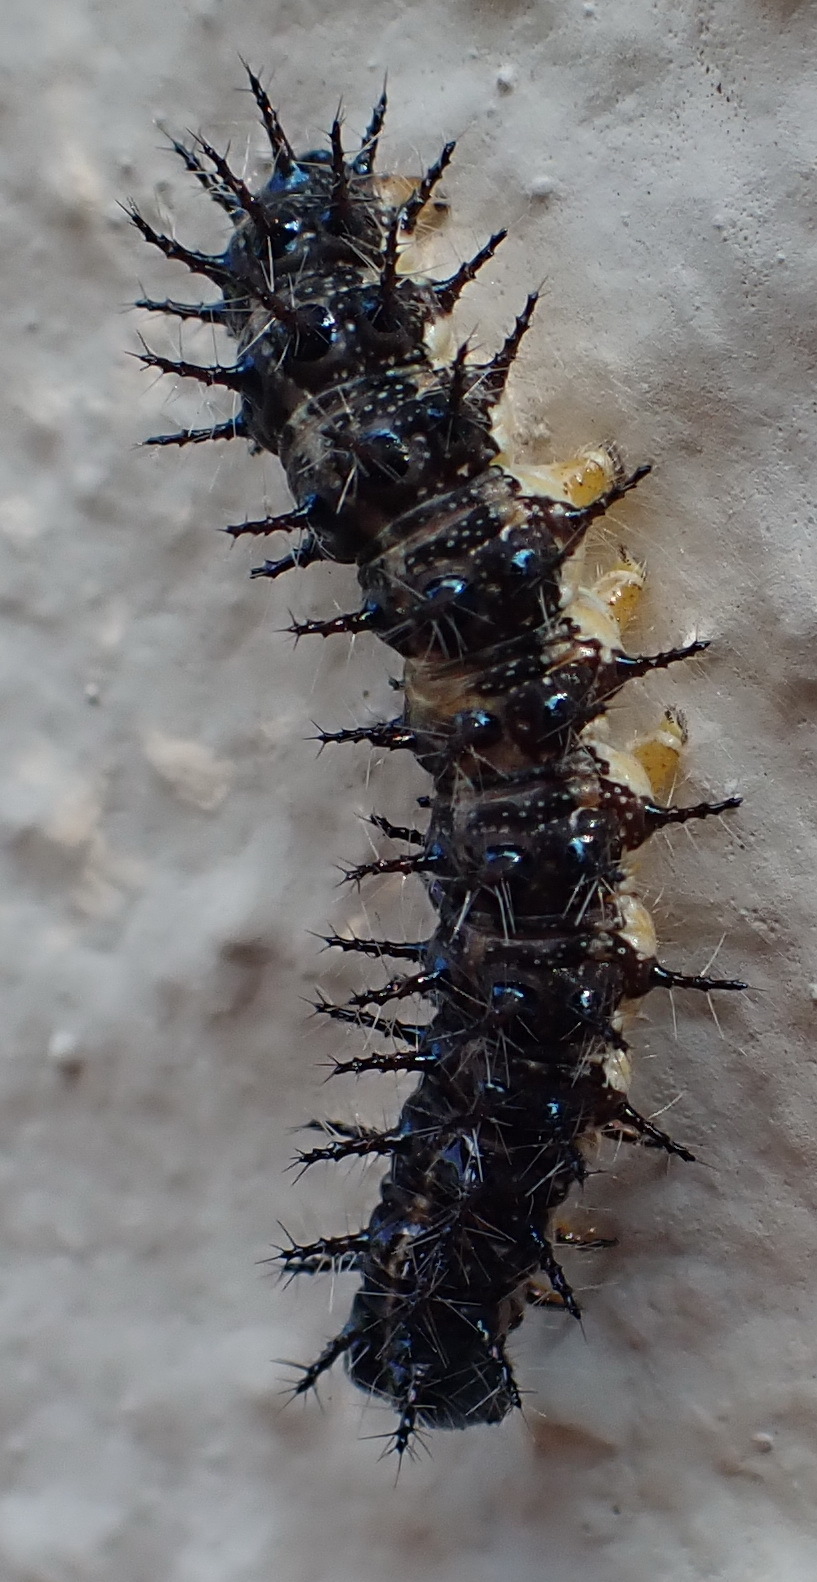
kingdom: Animalia
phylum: Arthropoda
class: Insecta
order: Lepidoptera
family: Nymphalidae
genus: Acraea
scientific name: Acraea horta
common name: Garden acraea
